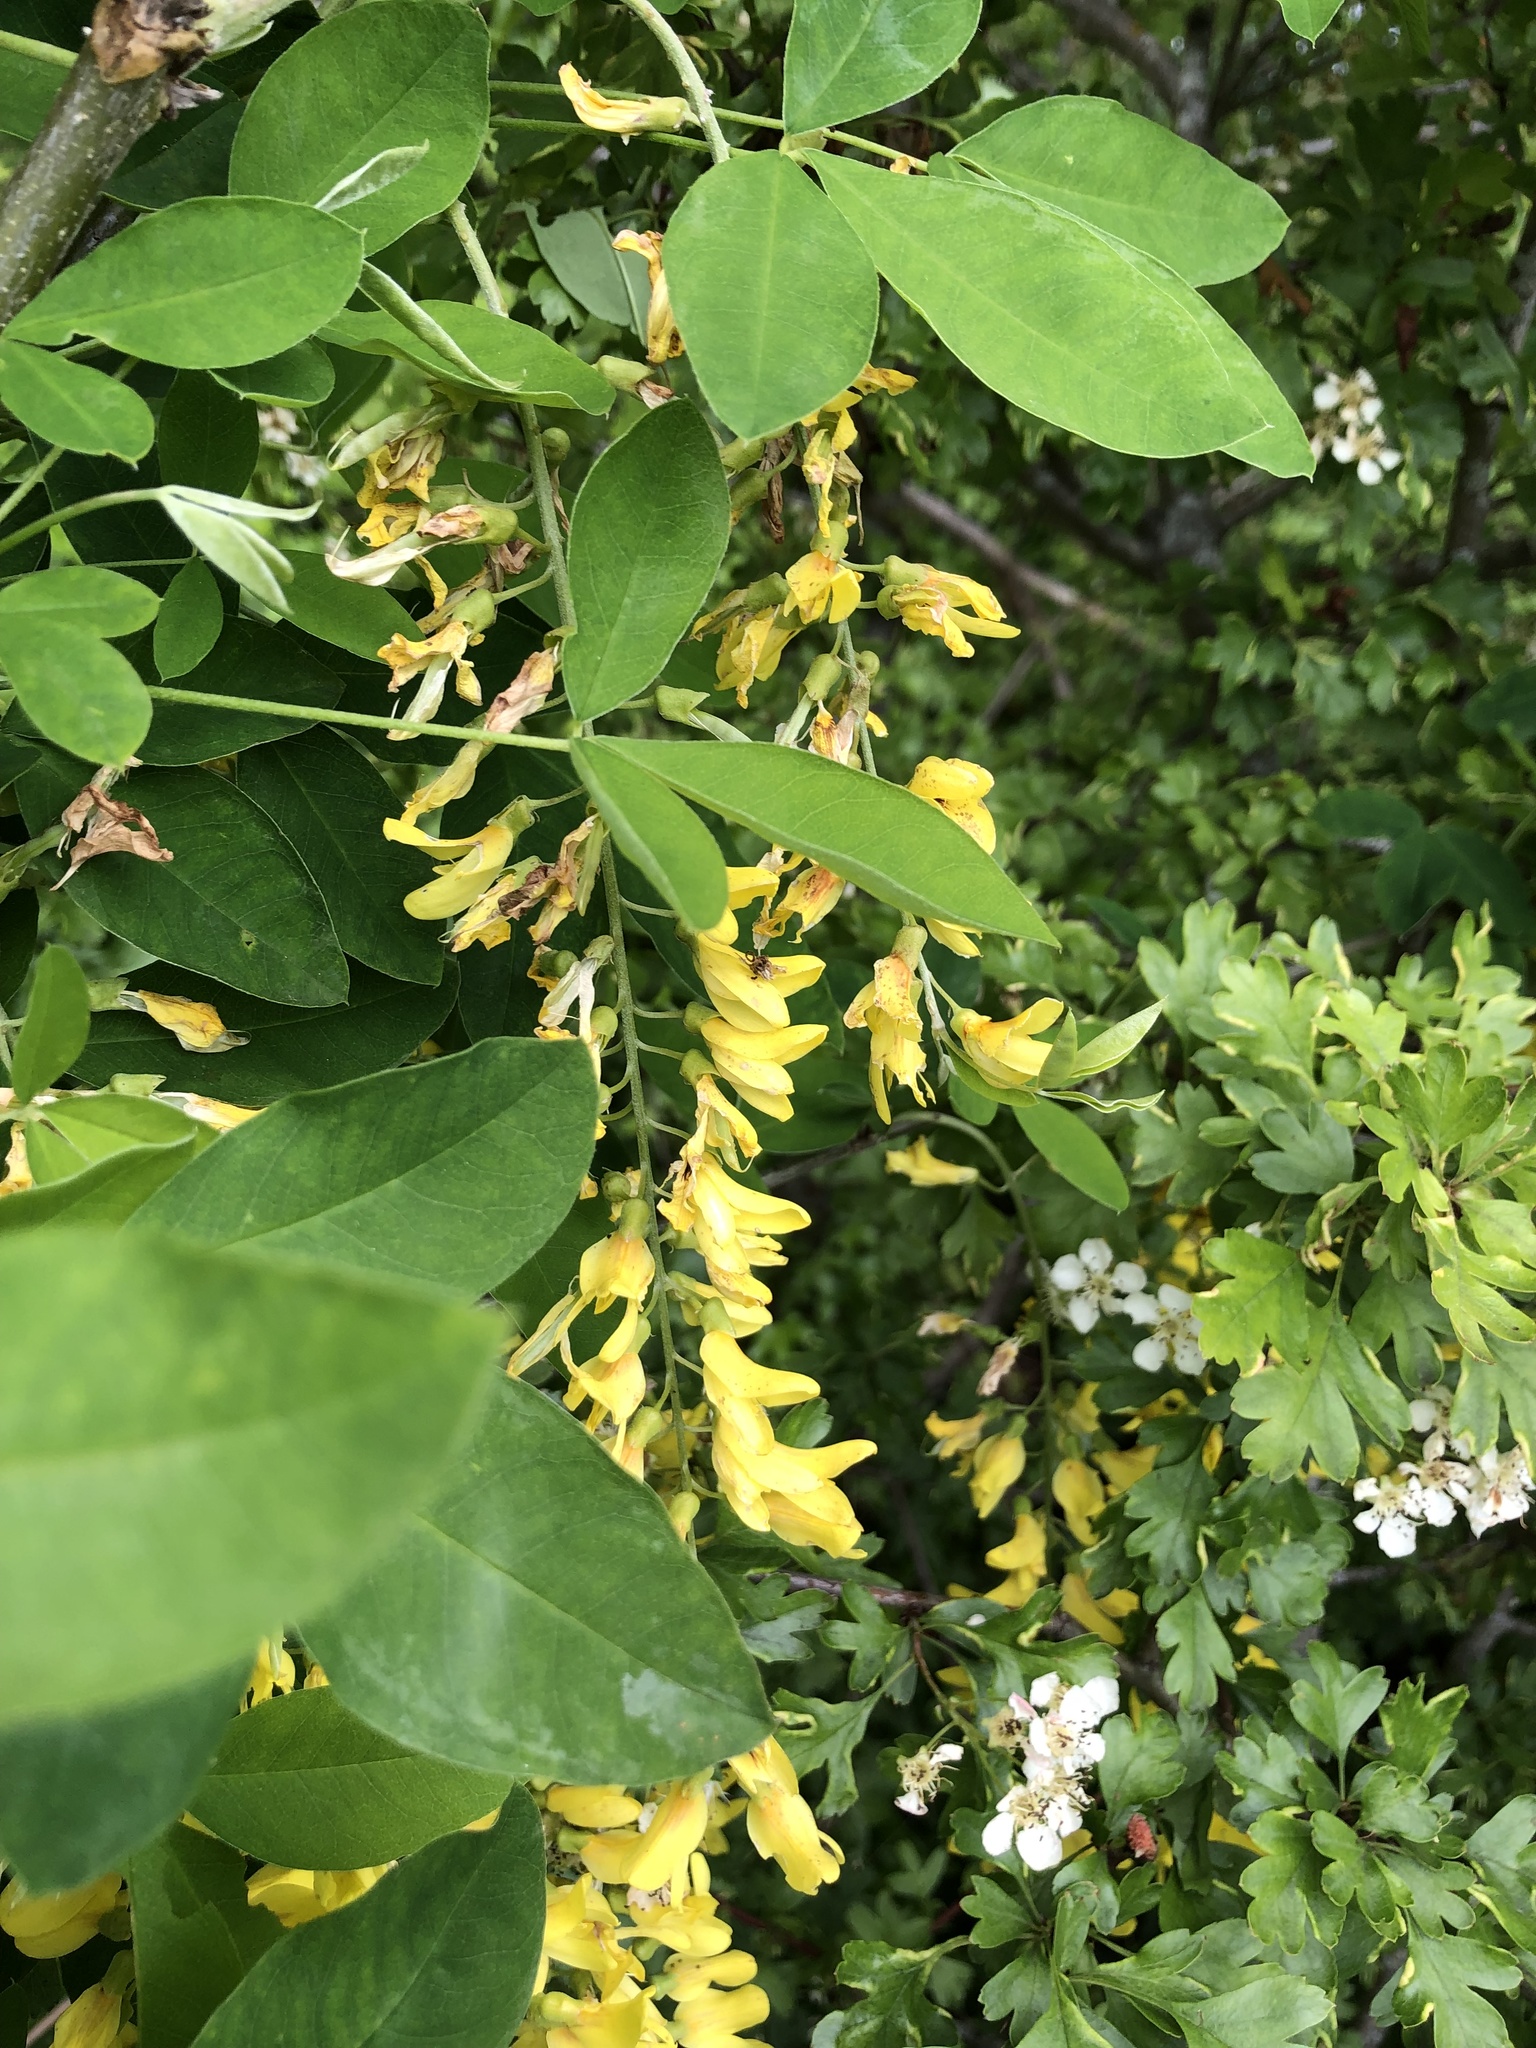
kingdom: Plantae
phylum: Tracheophyta
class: Magnoliopsida
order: Fabales
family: Fabaceae
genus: Laburnum
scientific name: Laburnum anagyroides
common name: Laburnum
